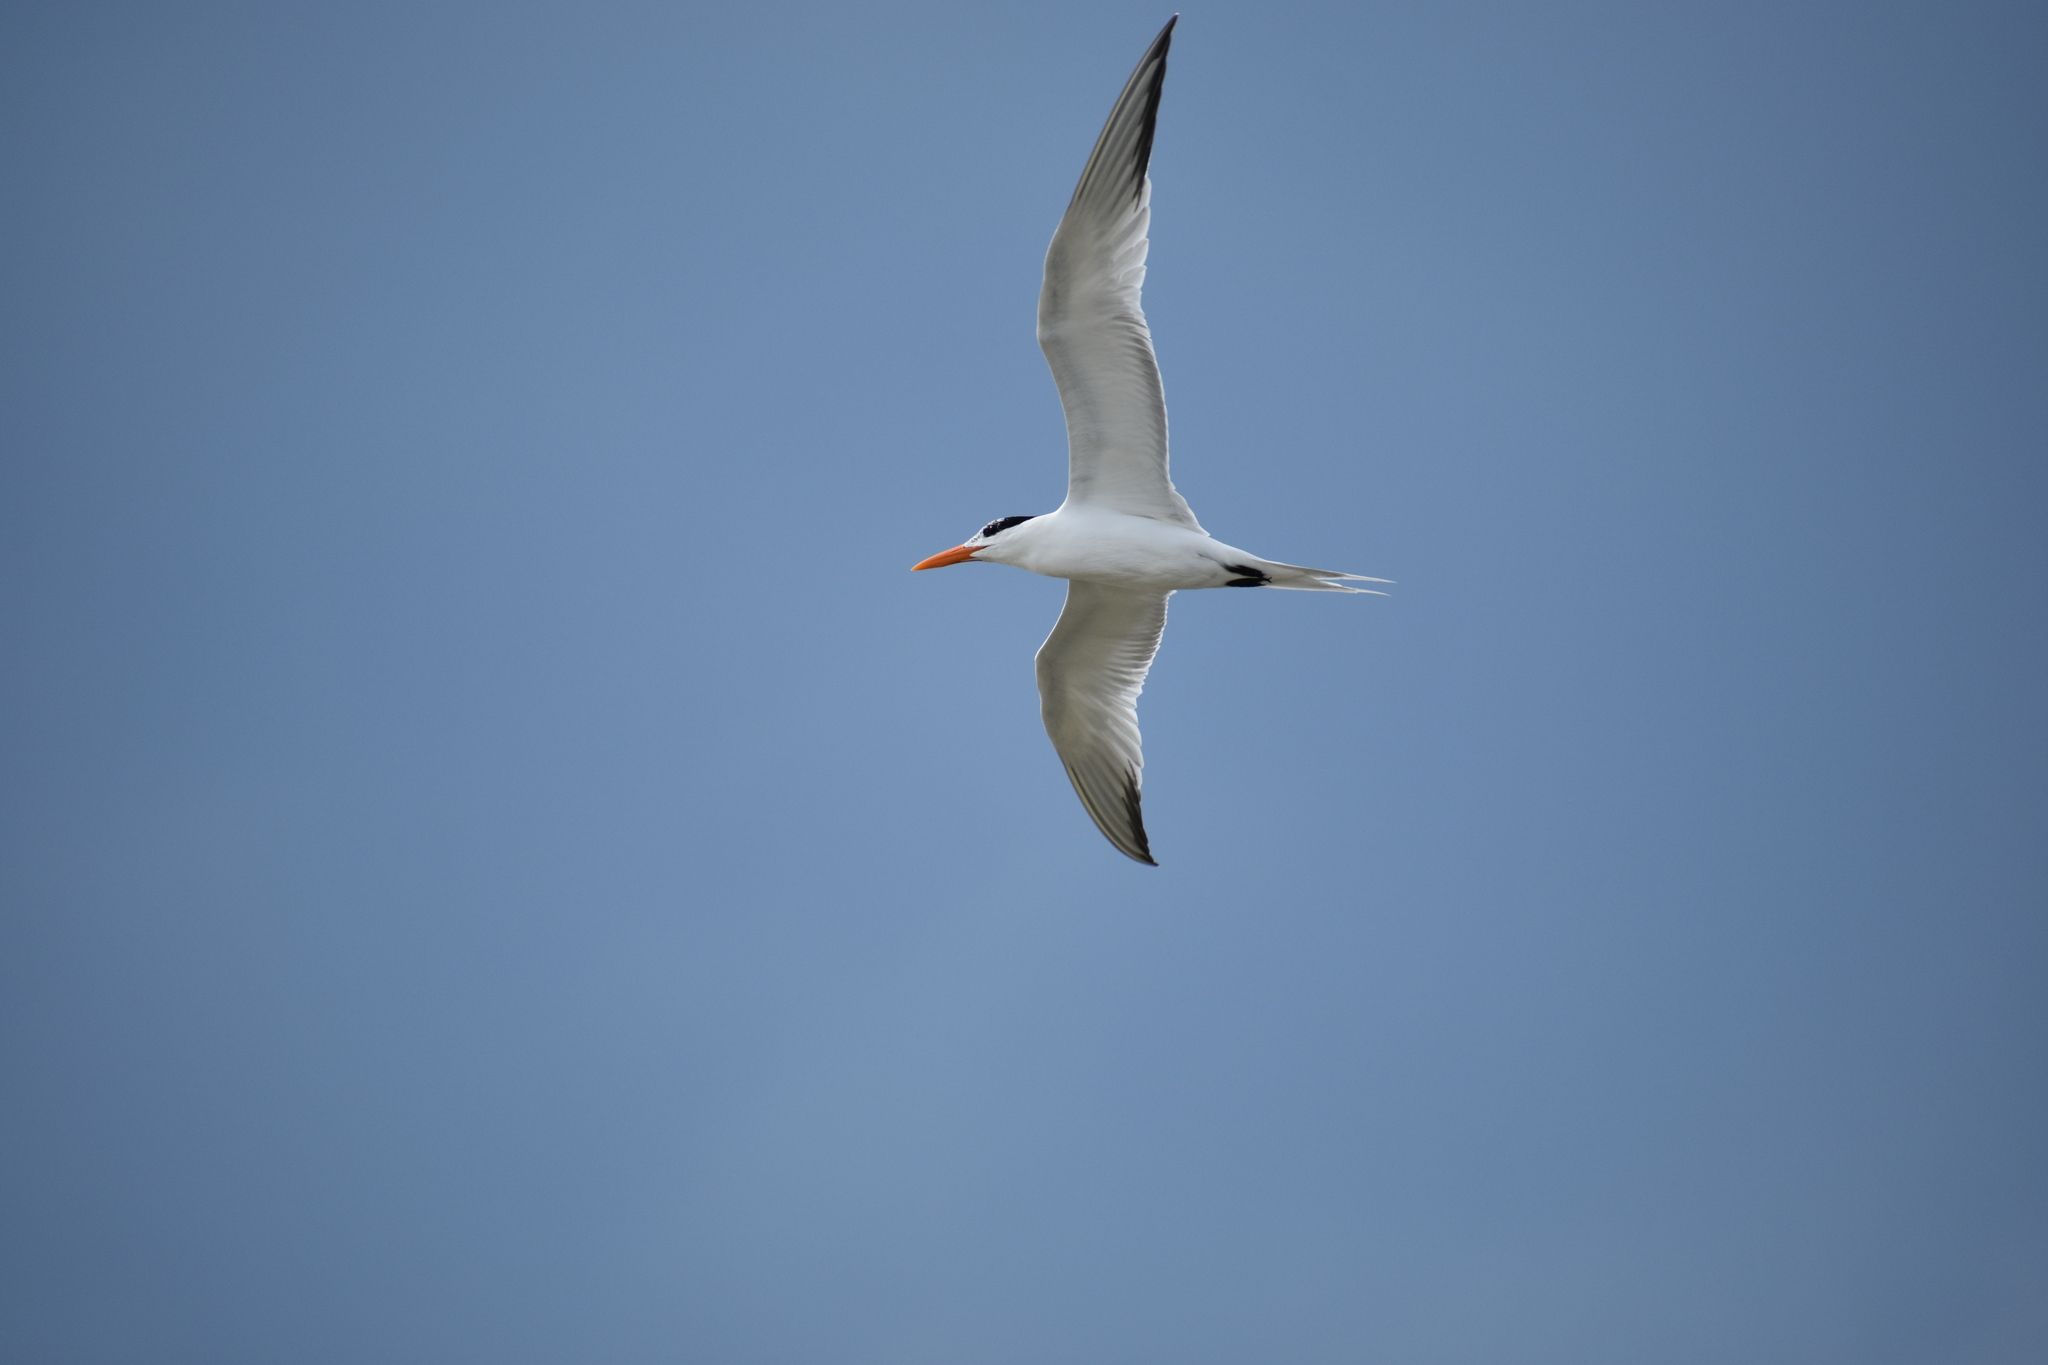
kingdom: Animalia
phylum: Chordata
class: Aves
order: Charadriiformes
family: Laridae
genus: Thalasseus
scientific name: Thalasseus maximus
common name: Royal tern
